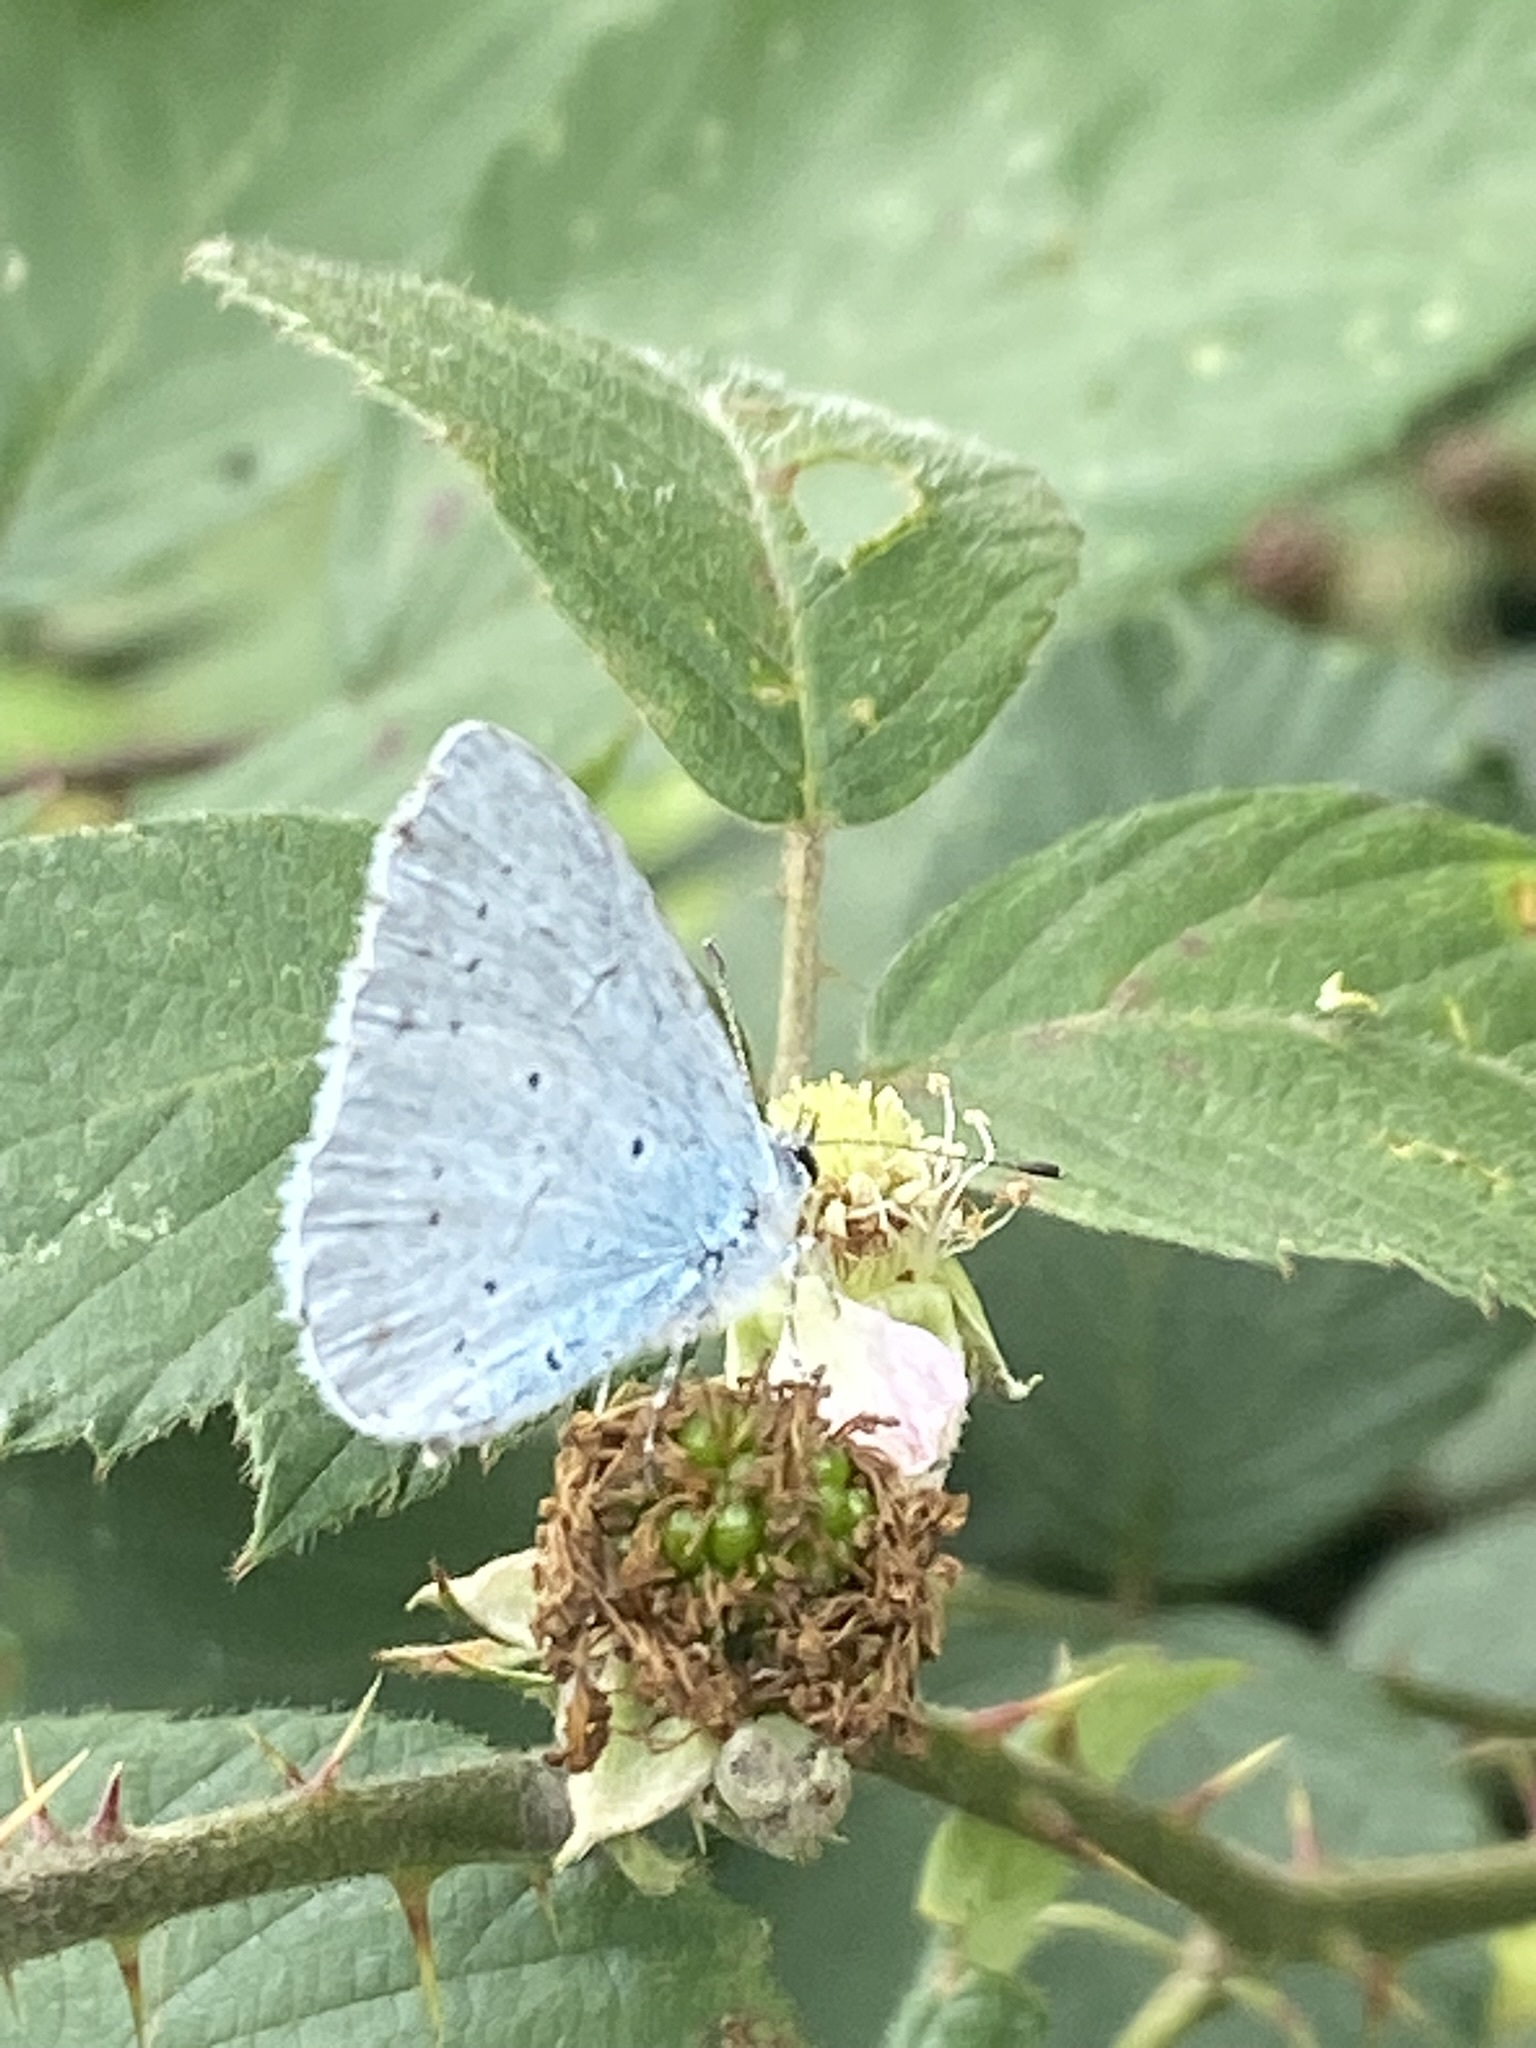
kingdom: Animalia
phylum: Arthropoda
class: Insecta
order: Lepidoptera
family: Lycaenidae
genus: Celastrina
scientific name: Celastrina argiolus
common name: Holly blue
